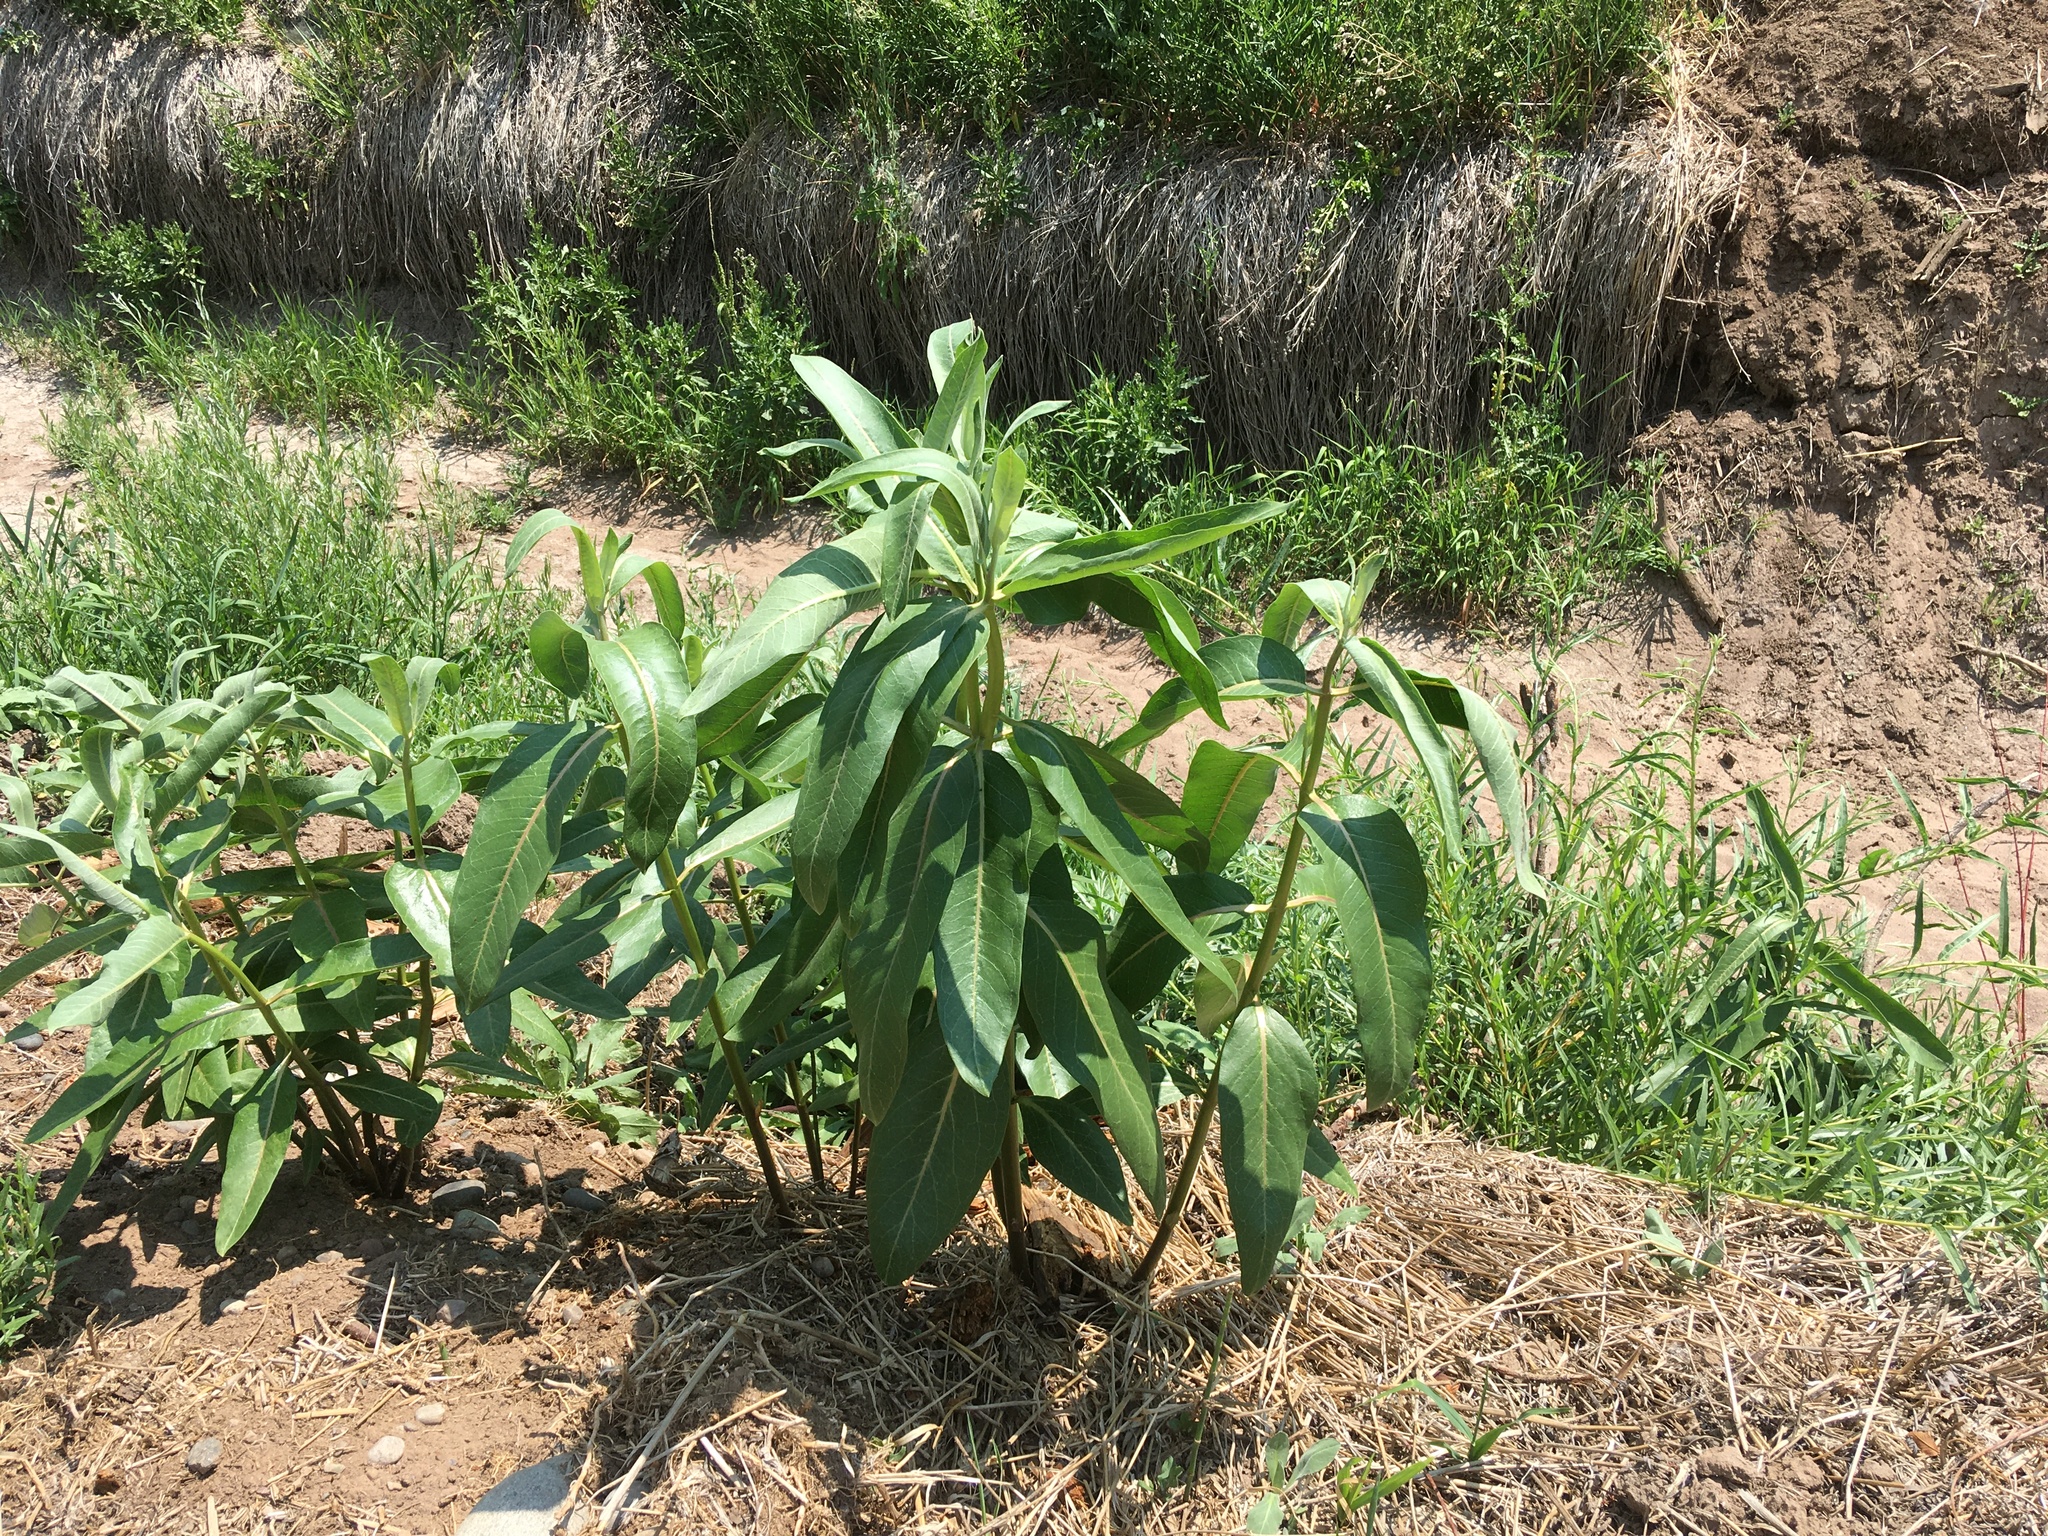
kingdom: Plantae
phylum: Tracheophyta
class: Magnoliopsida
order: Gentianales
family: Apocynaceae
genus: Asclepias
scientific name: Asclepias speciosa
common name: Showy milkweed
